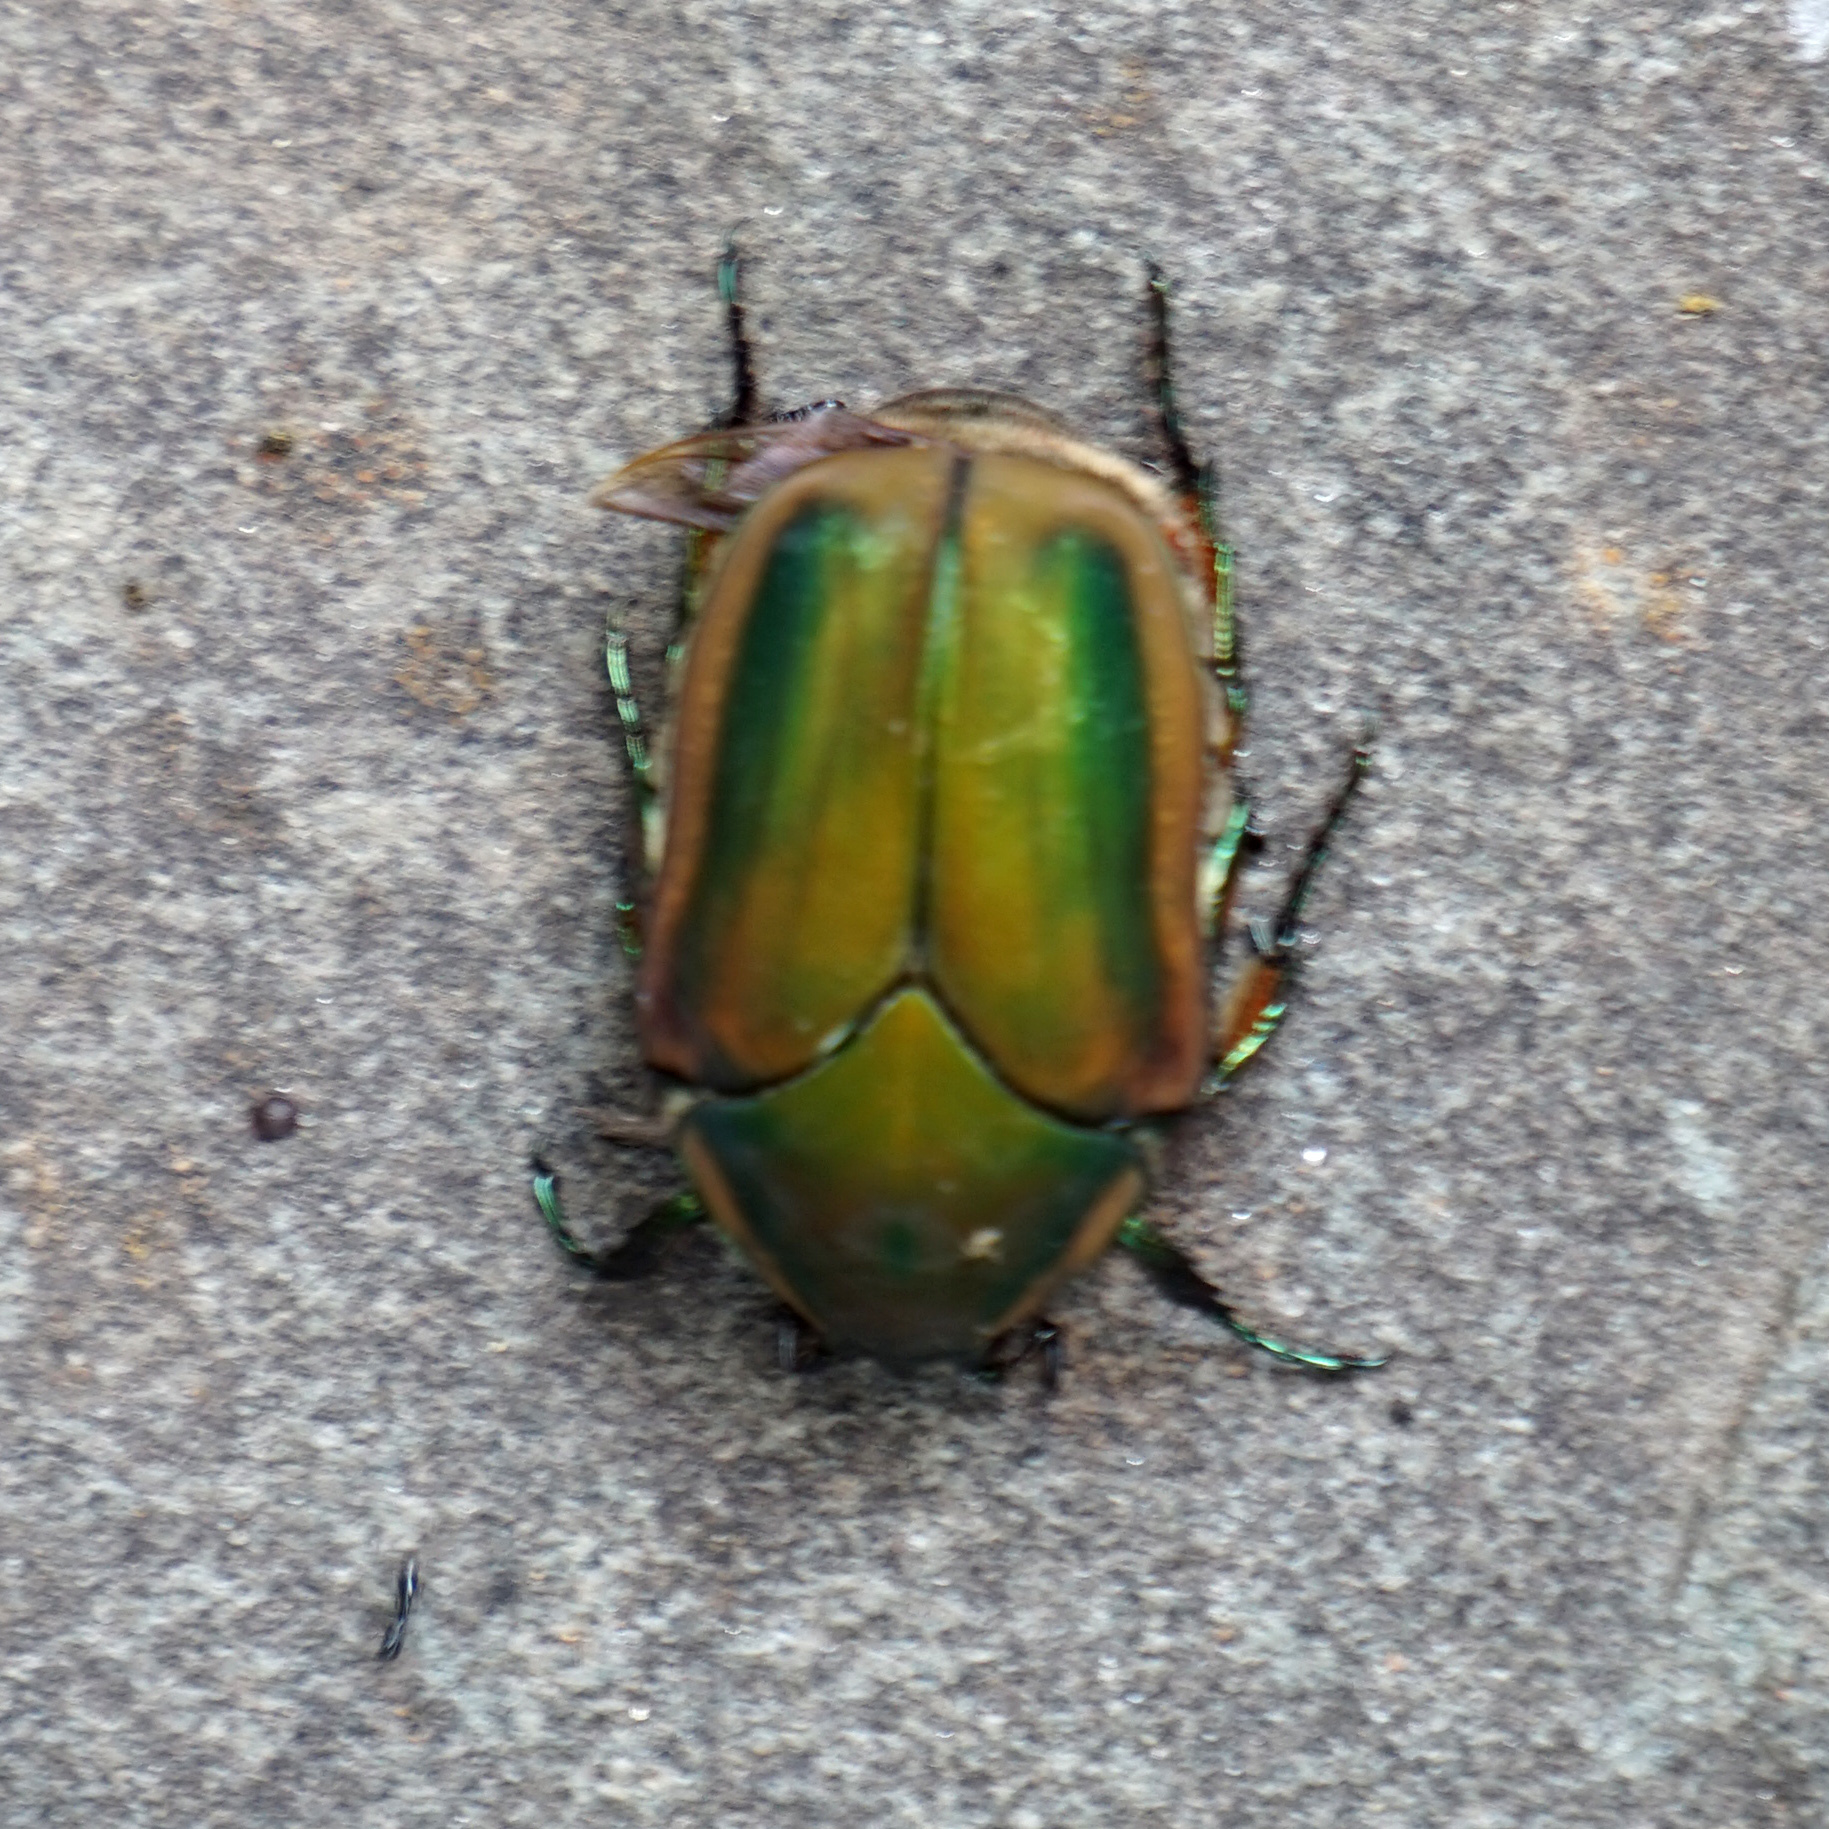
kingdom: Animalia
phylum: Arthropoda
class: Insecta
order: Coleoptera
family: Scarabaeidae
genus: Cotinis
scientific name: Cotinis nitida
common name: Common green june beetle
